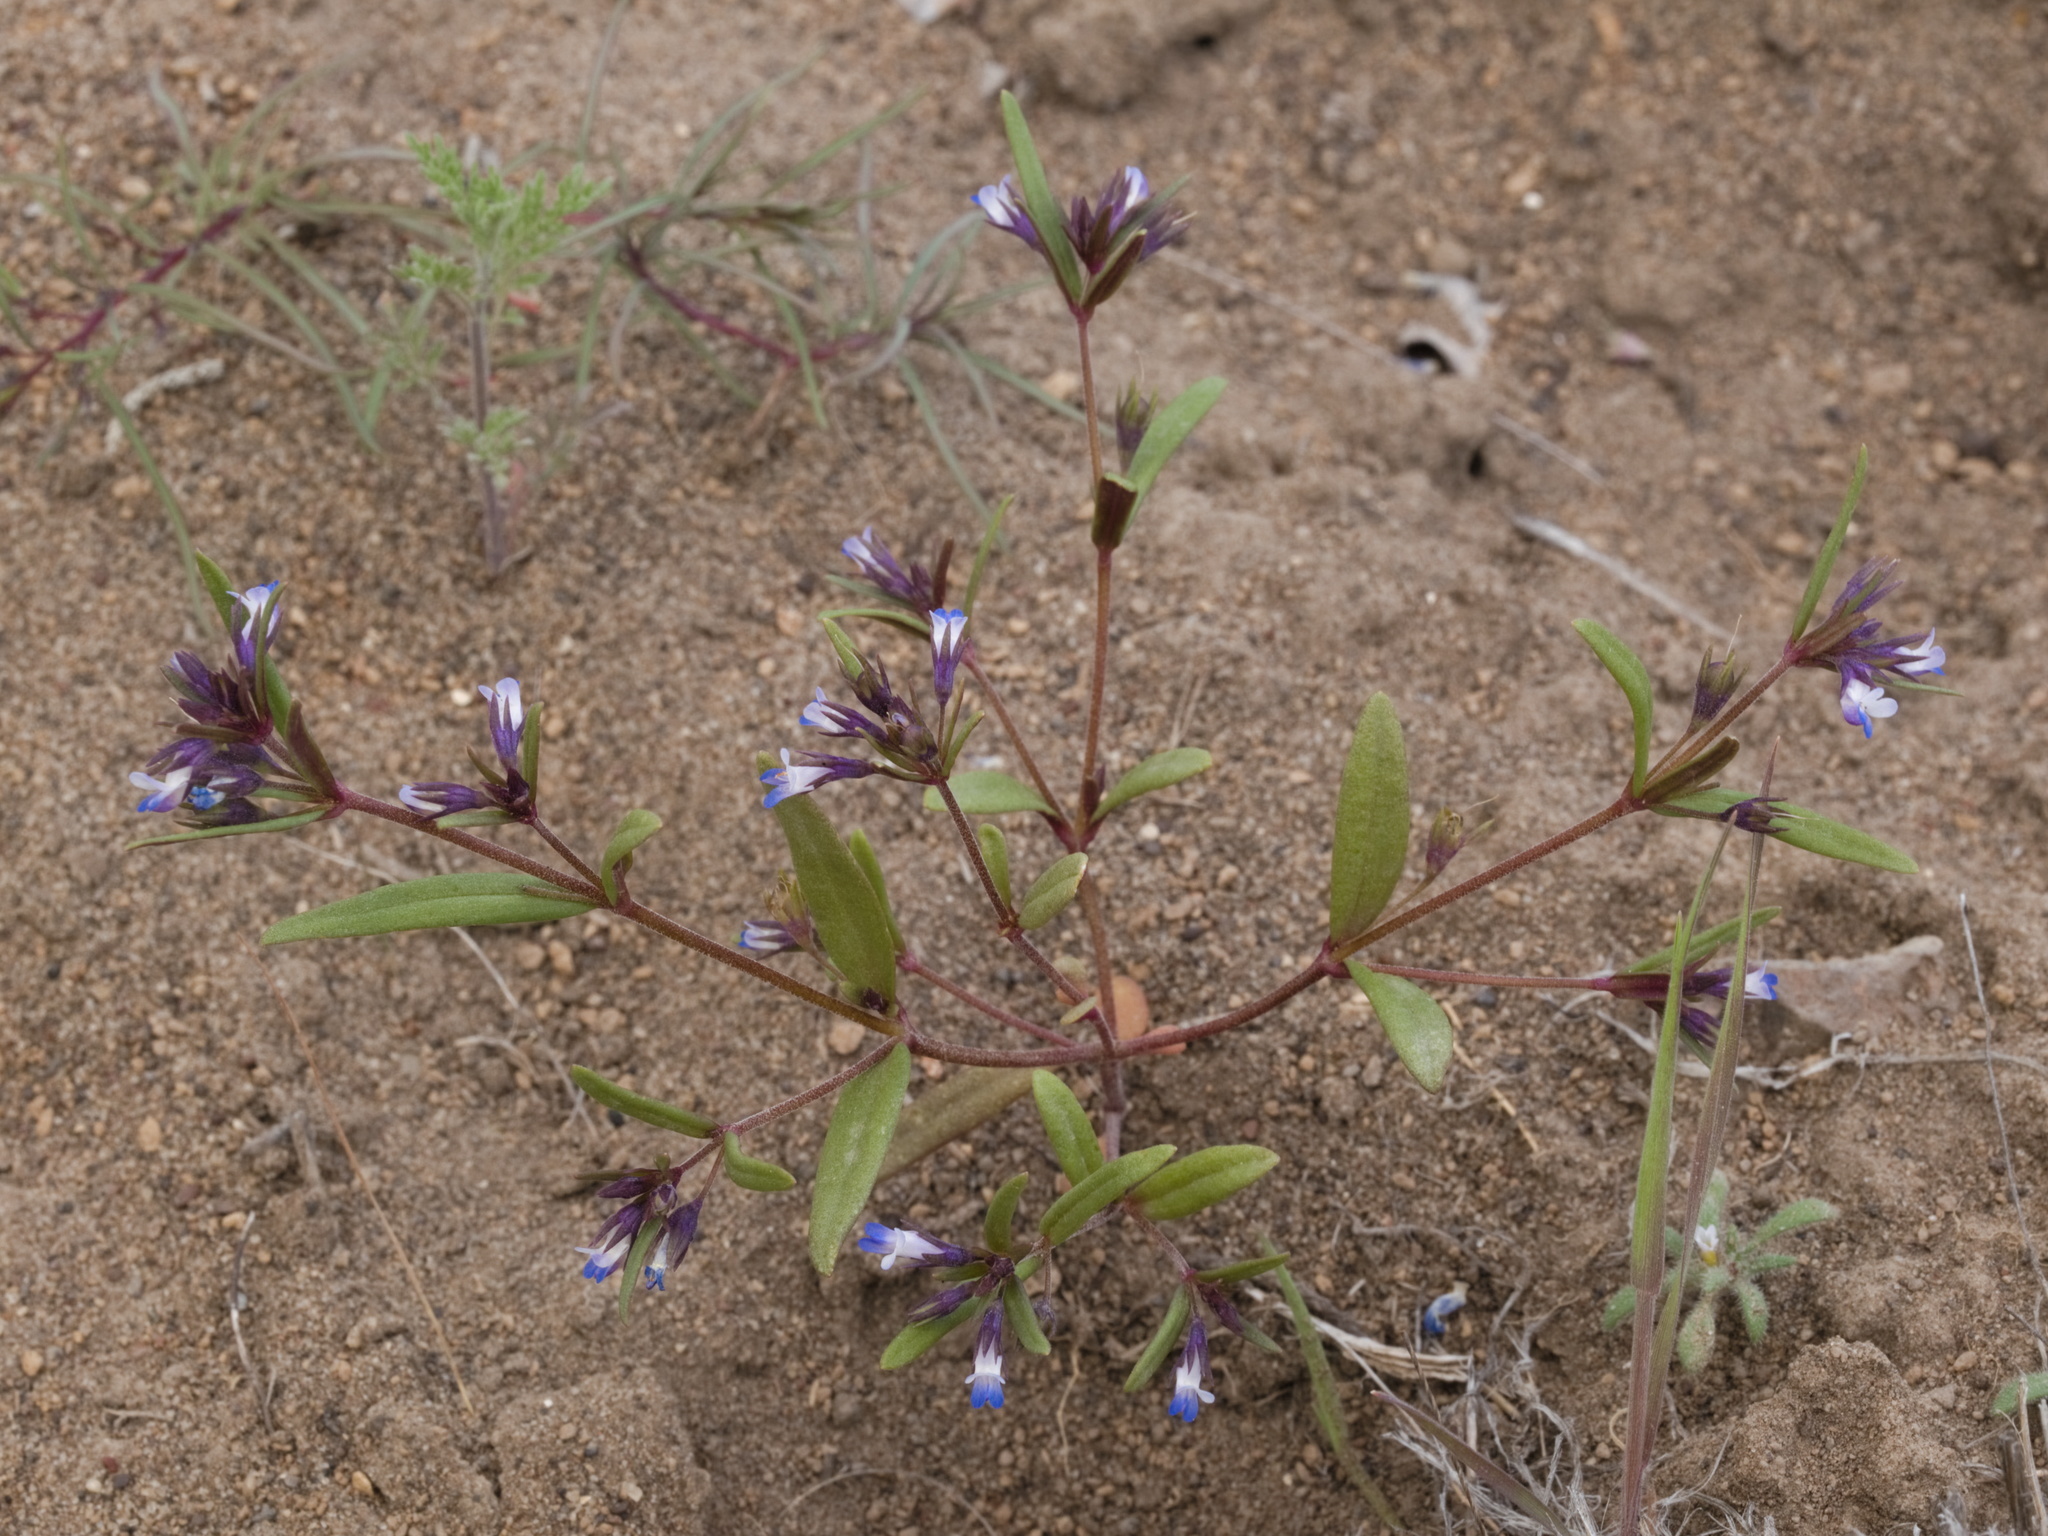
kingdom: Plantae
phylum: Tracheophyta
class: Magnoliopsida
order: Lamiales
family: Plantaginaceae
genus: Collinsia
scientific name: Collinsia parviflora
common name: Blue-lips
